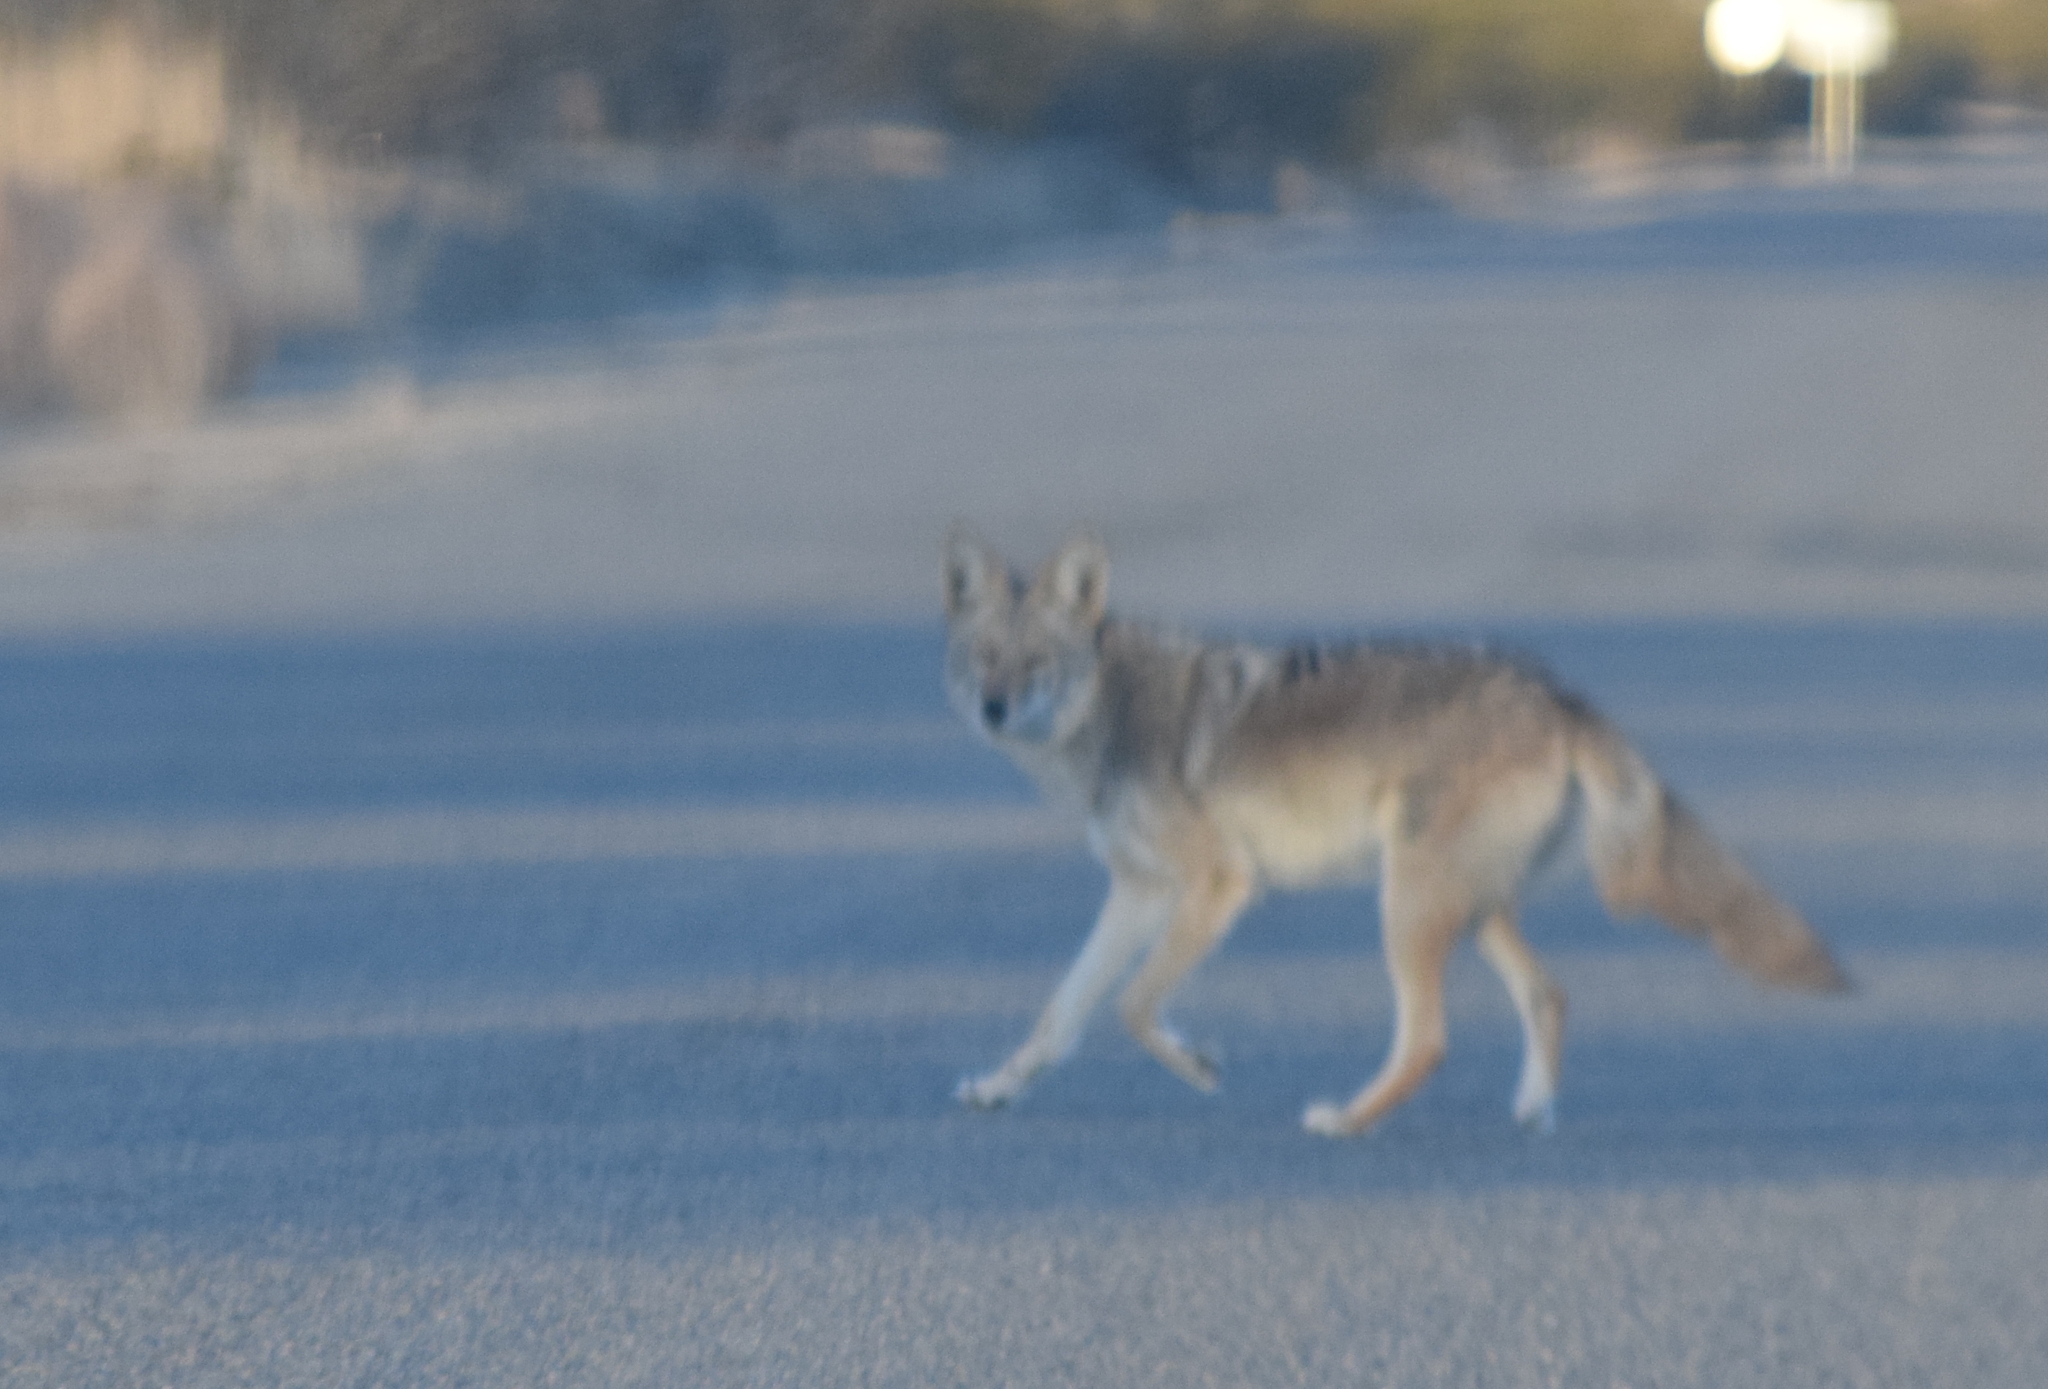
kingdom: Animalia
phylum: Chordata
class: Mammalia
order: Carnivora
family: Canidae
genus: Canis
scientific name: Canis latrans
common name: Coyote
